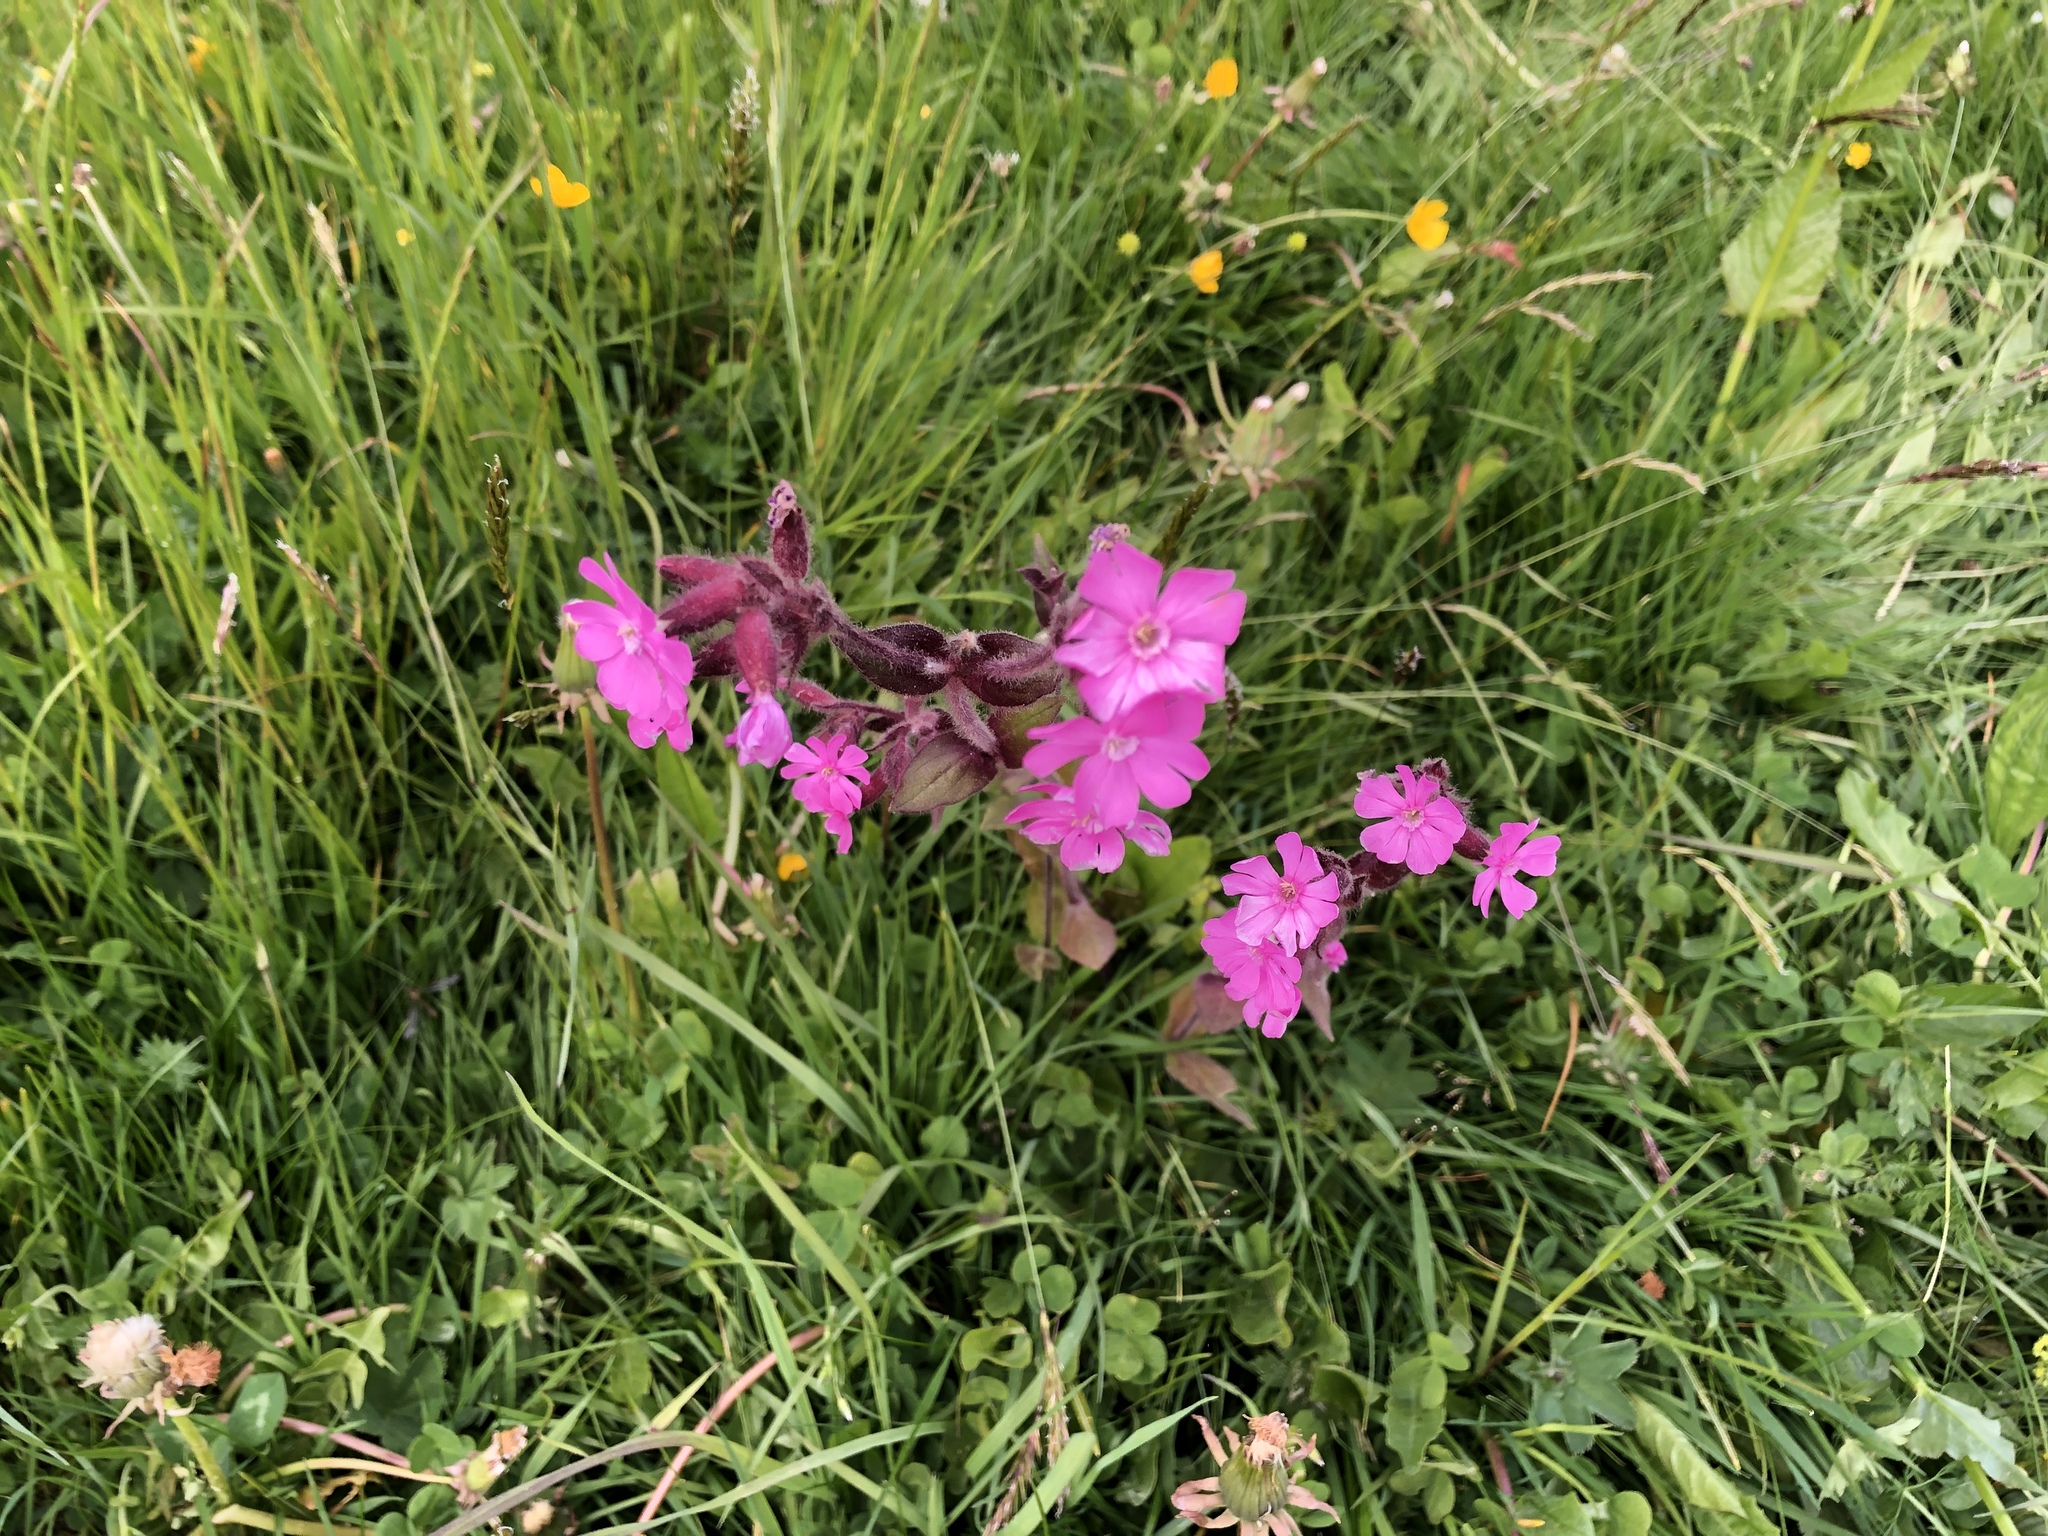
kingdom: Plantae
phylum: Tracheophyta
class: Magnoliopsida
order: Caryophyllales
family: Caryophyllaceae
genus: Silene
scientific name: Silene dioica
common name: Red campion
